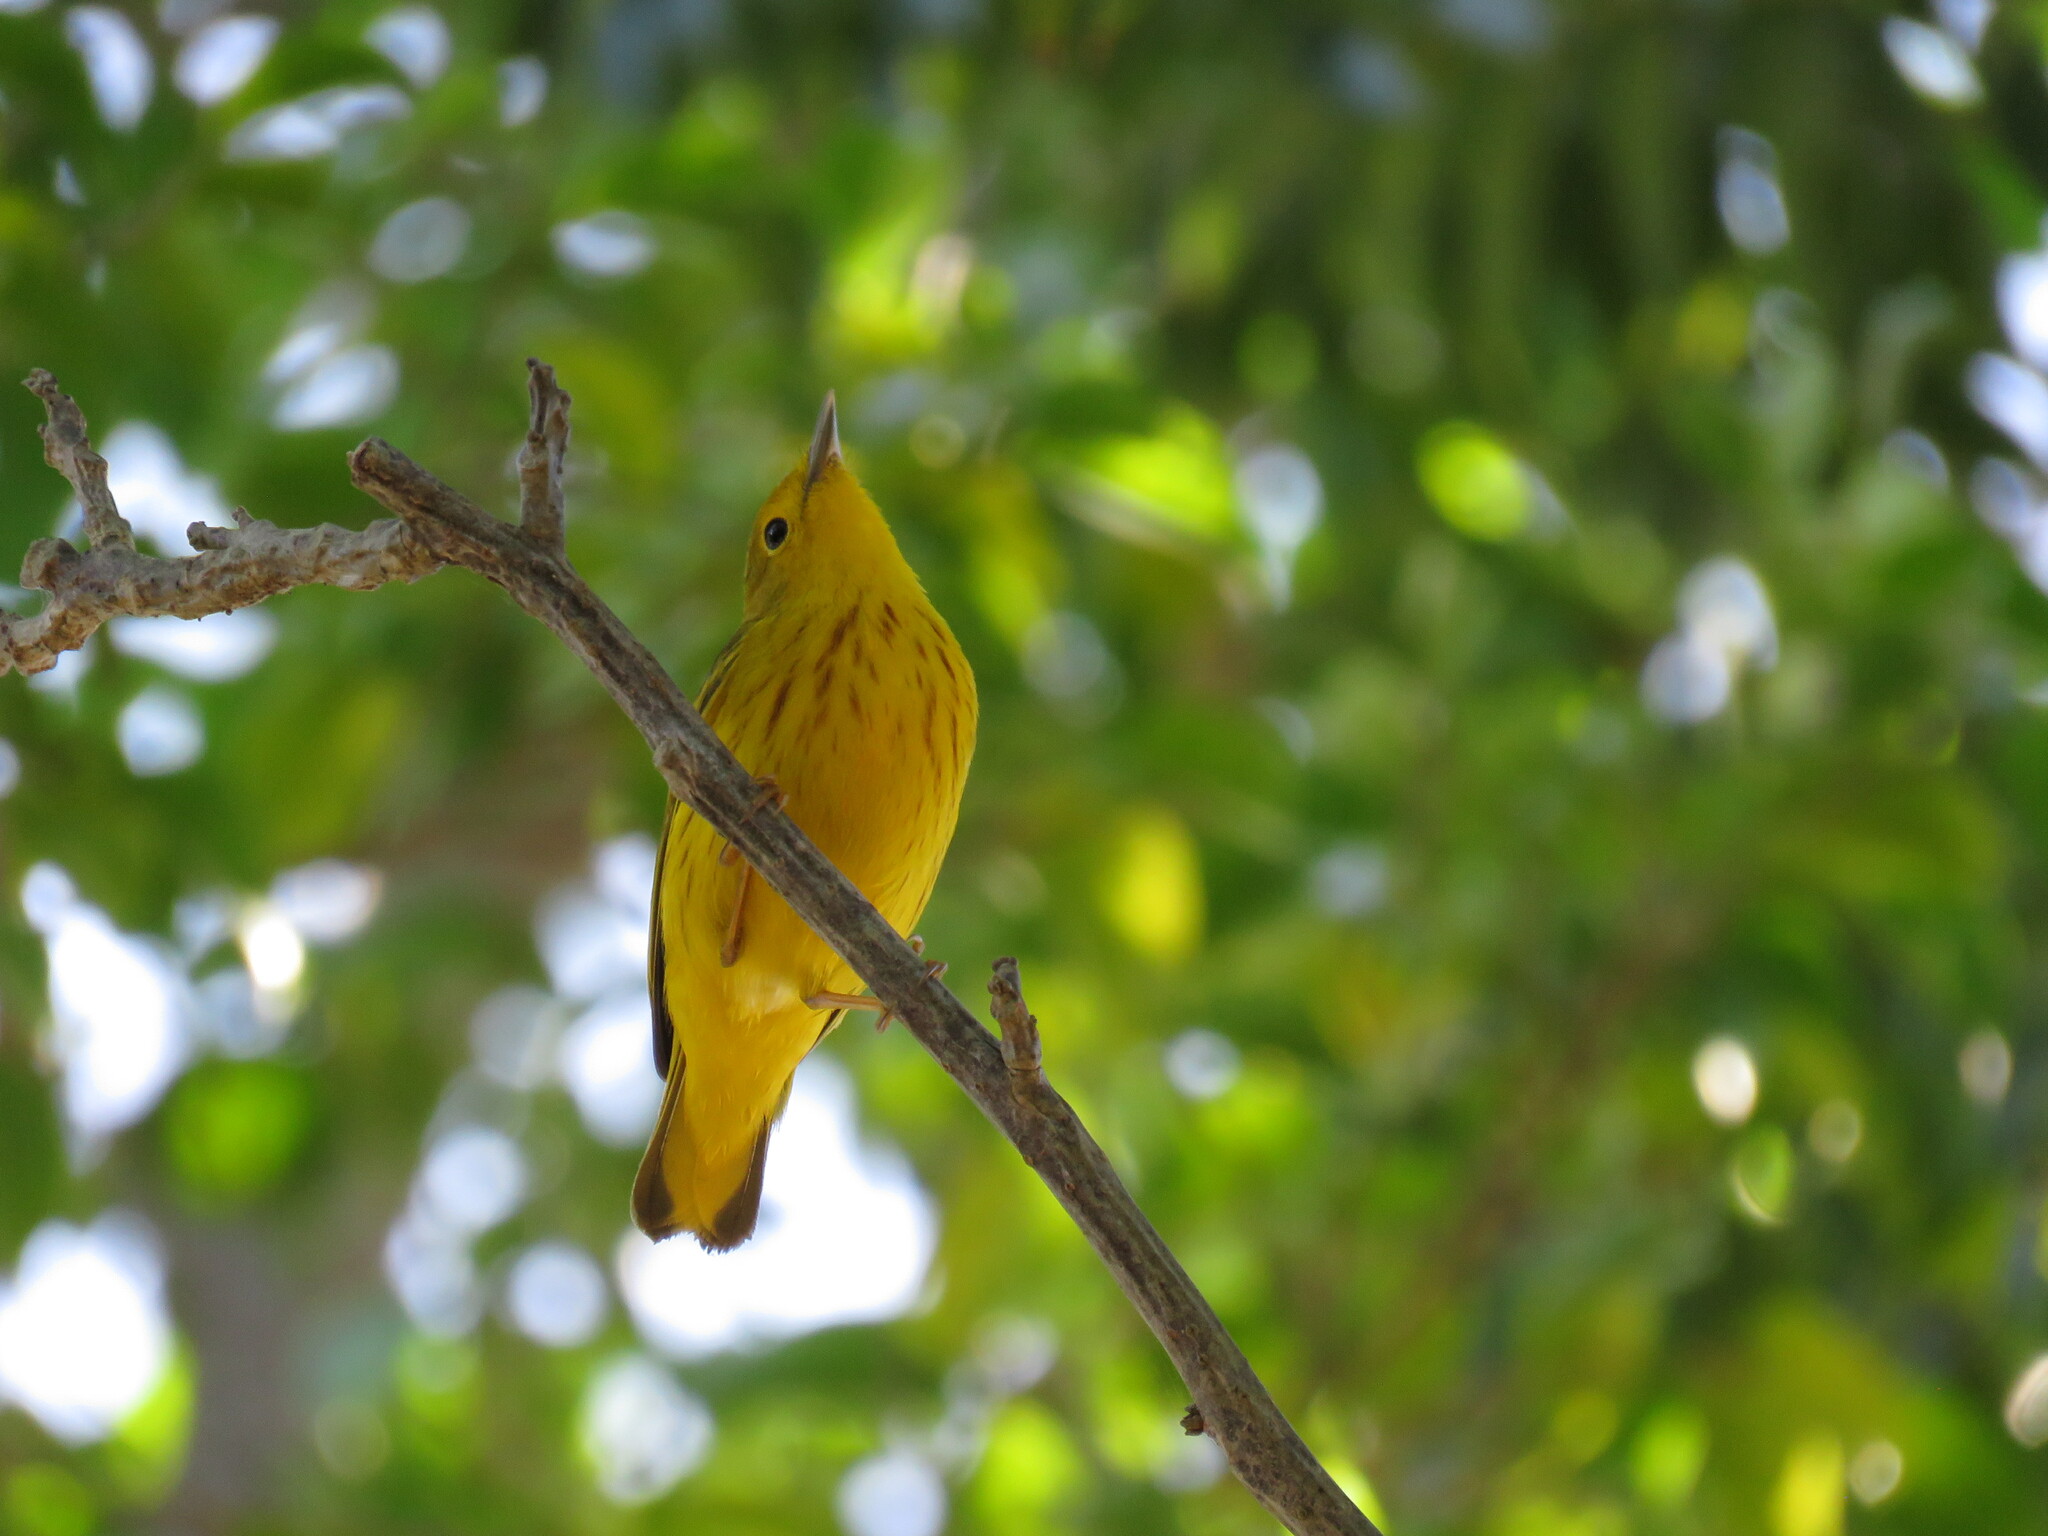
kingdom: Animalia
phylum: Chordata
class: Aves
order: Passeriformes
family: Parulidae
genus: Setophaga
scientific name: Setophaga petechia
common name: Yellow warbler
